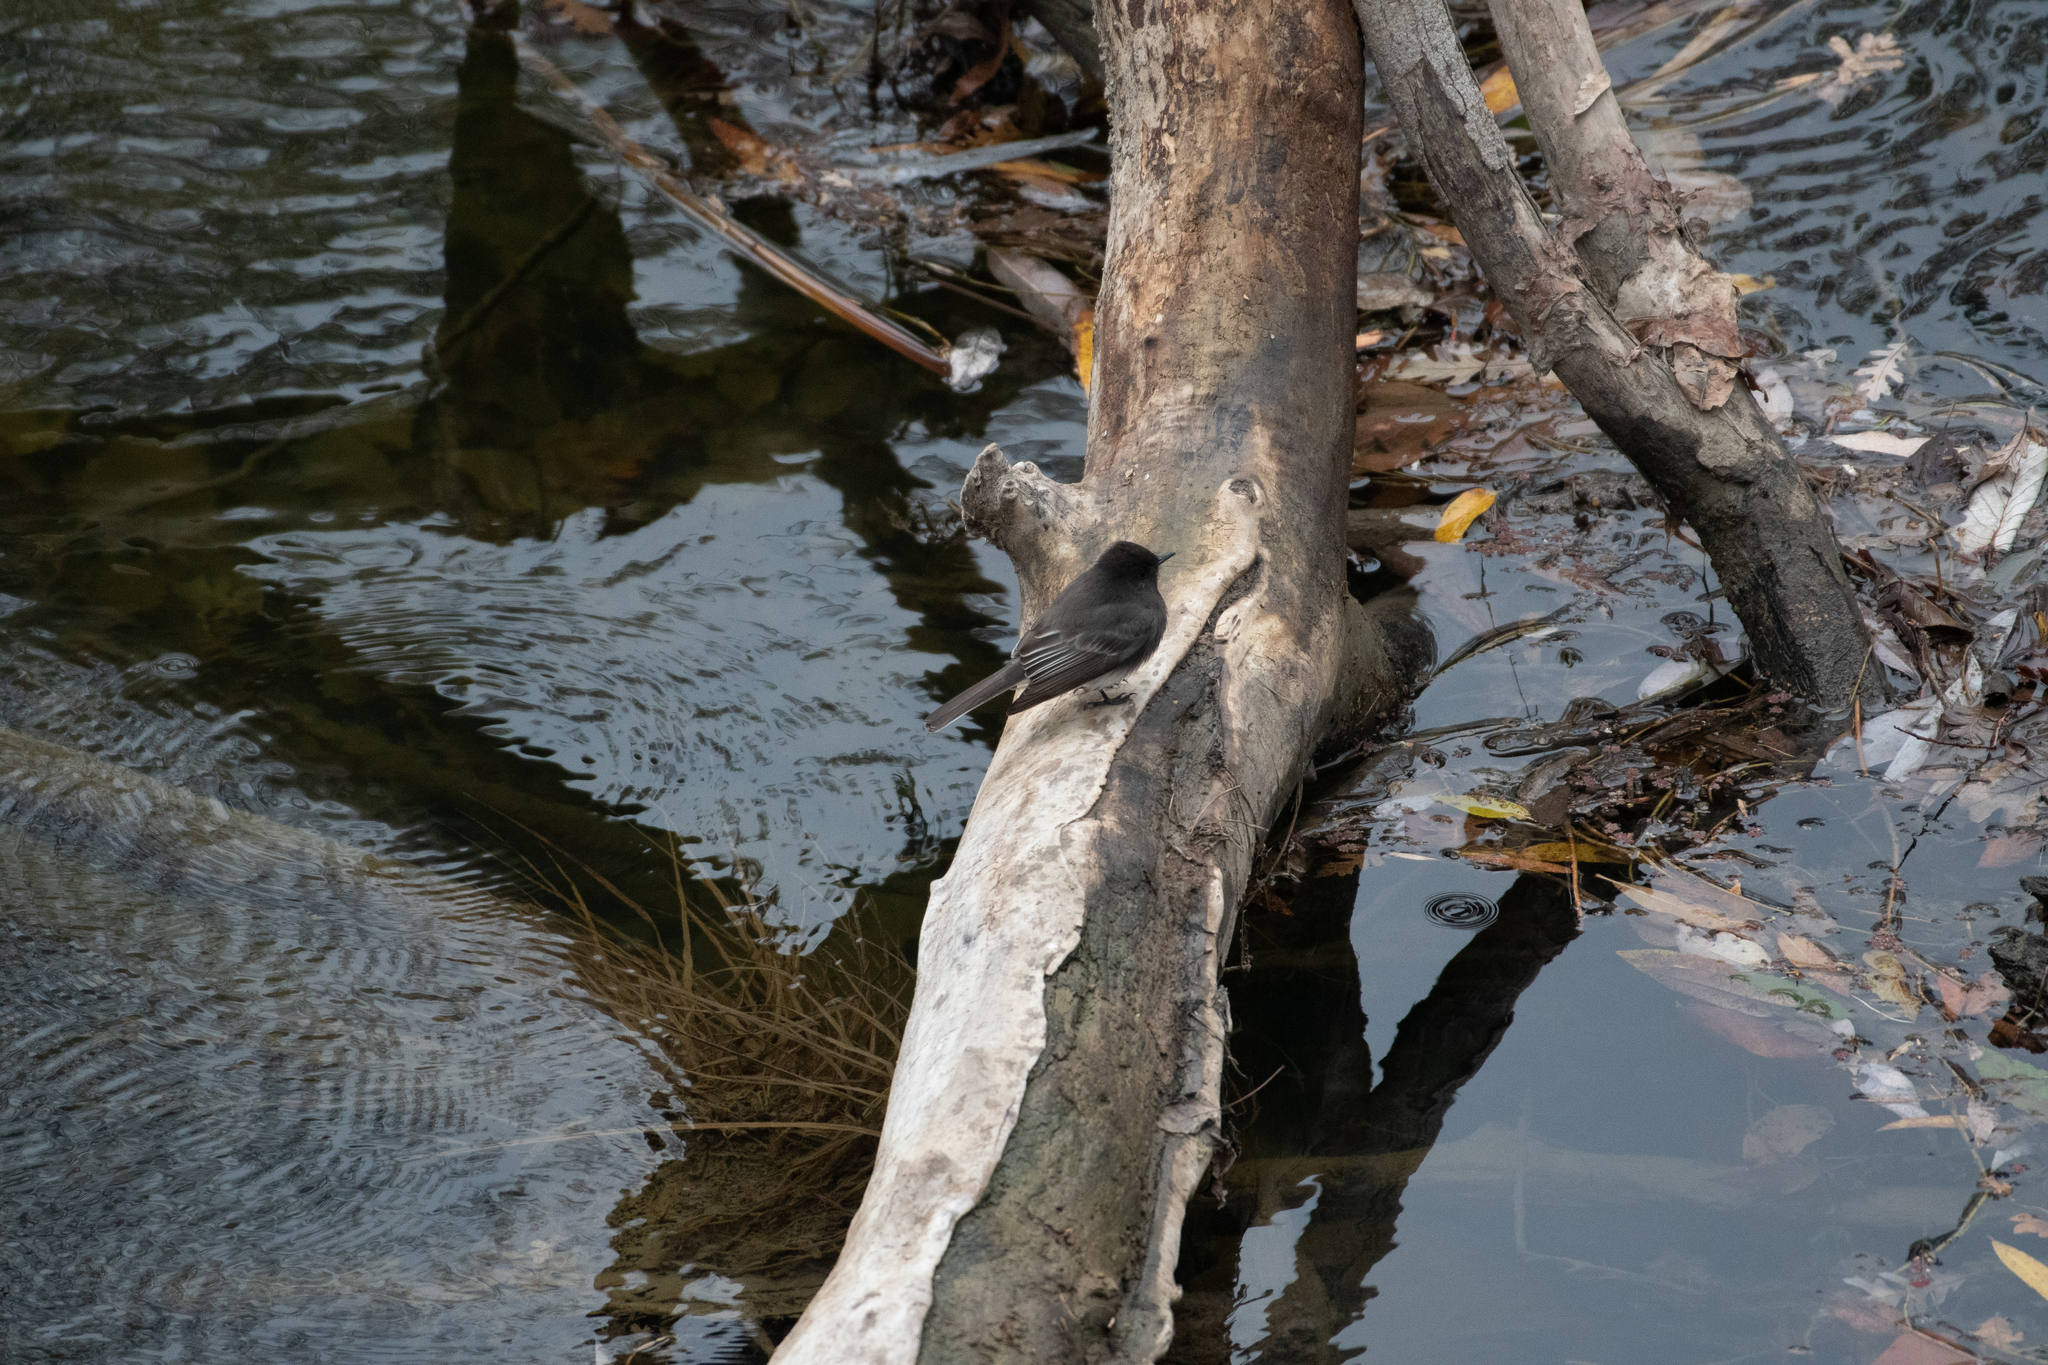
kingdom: Animalia
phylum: Chordata
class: Aves
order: Passeriformes
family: Tyrannidae
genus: Sayornis
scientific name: Sayornis nigricans
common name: Black phoebe
